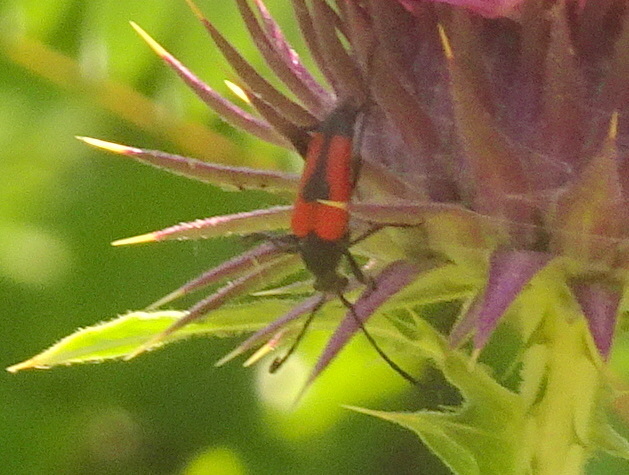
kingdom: Animalia
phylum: Arthropoda
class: Insecta
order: Coleoptera
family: Cerambycidae
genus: Stictoleptura
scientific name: Stictoleptura cordigera
